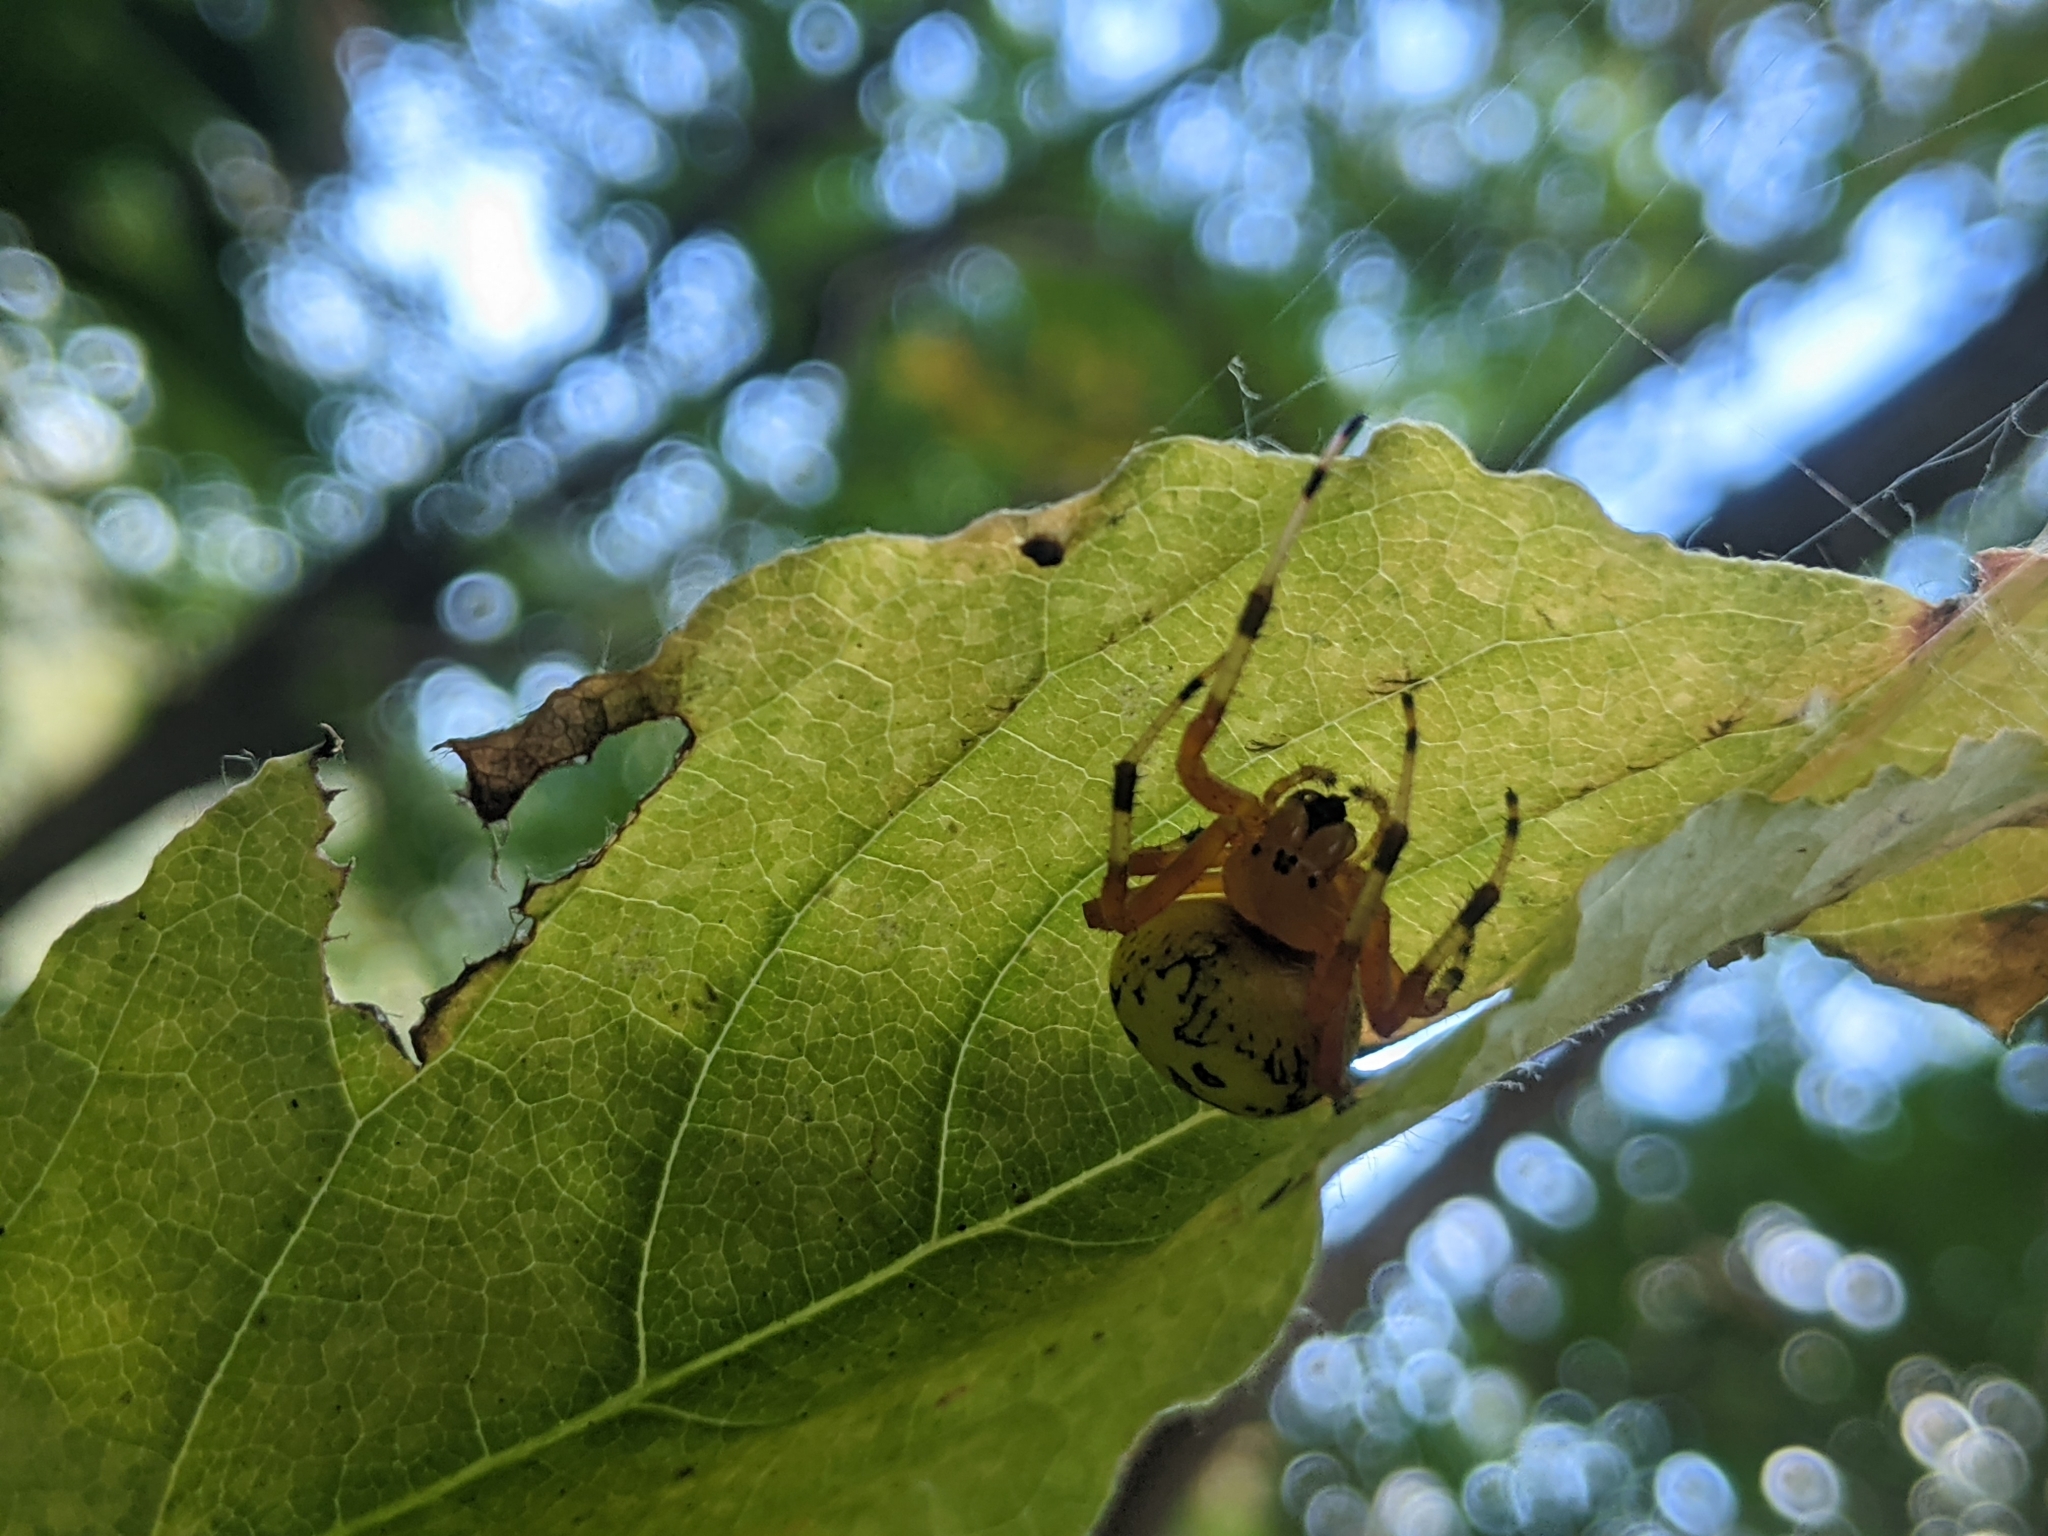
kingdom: Animalia
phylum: Arthropoda
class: Arachnida
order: Araneae
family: Araneidae
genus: Araneus
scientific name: Araneus marmoreus
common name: Marbled orbweaver
